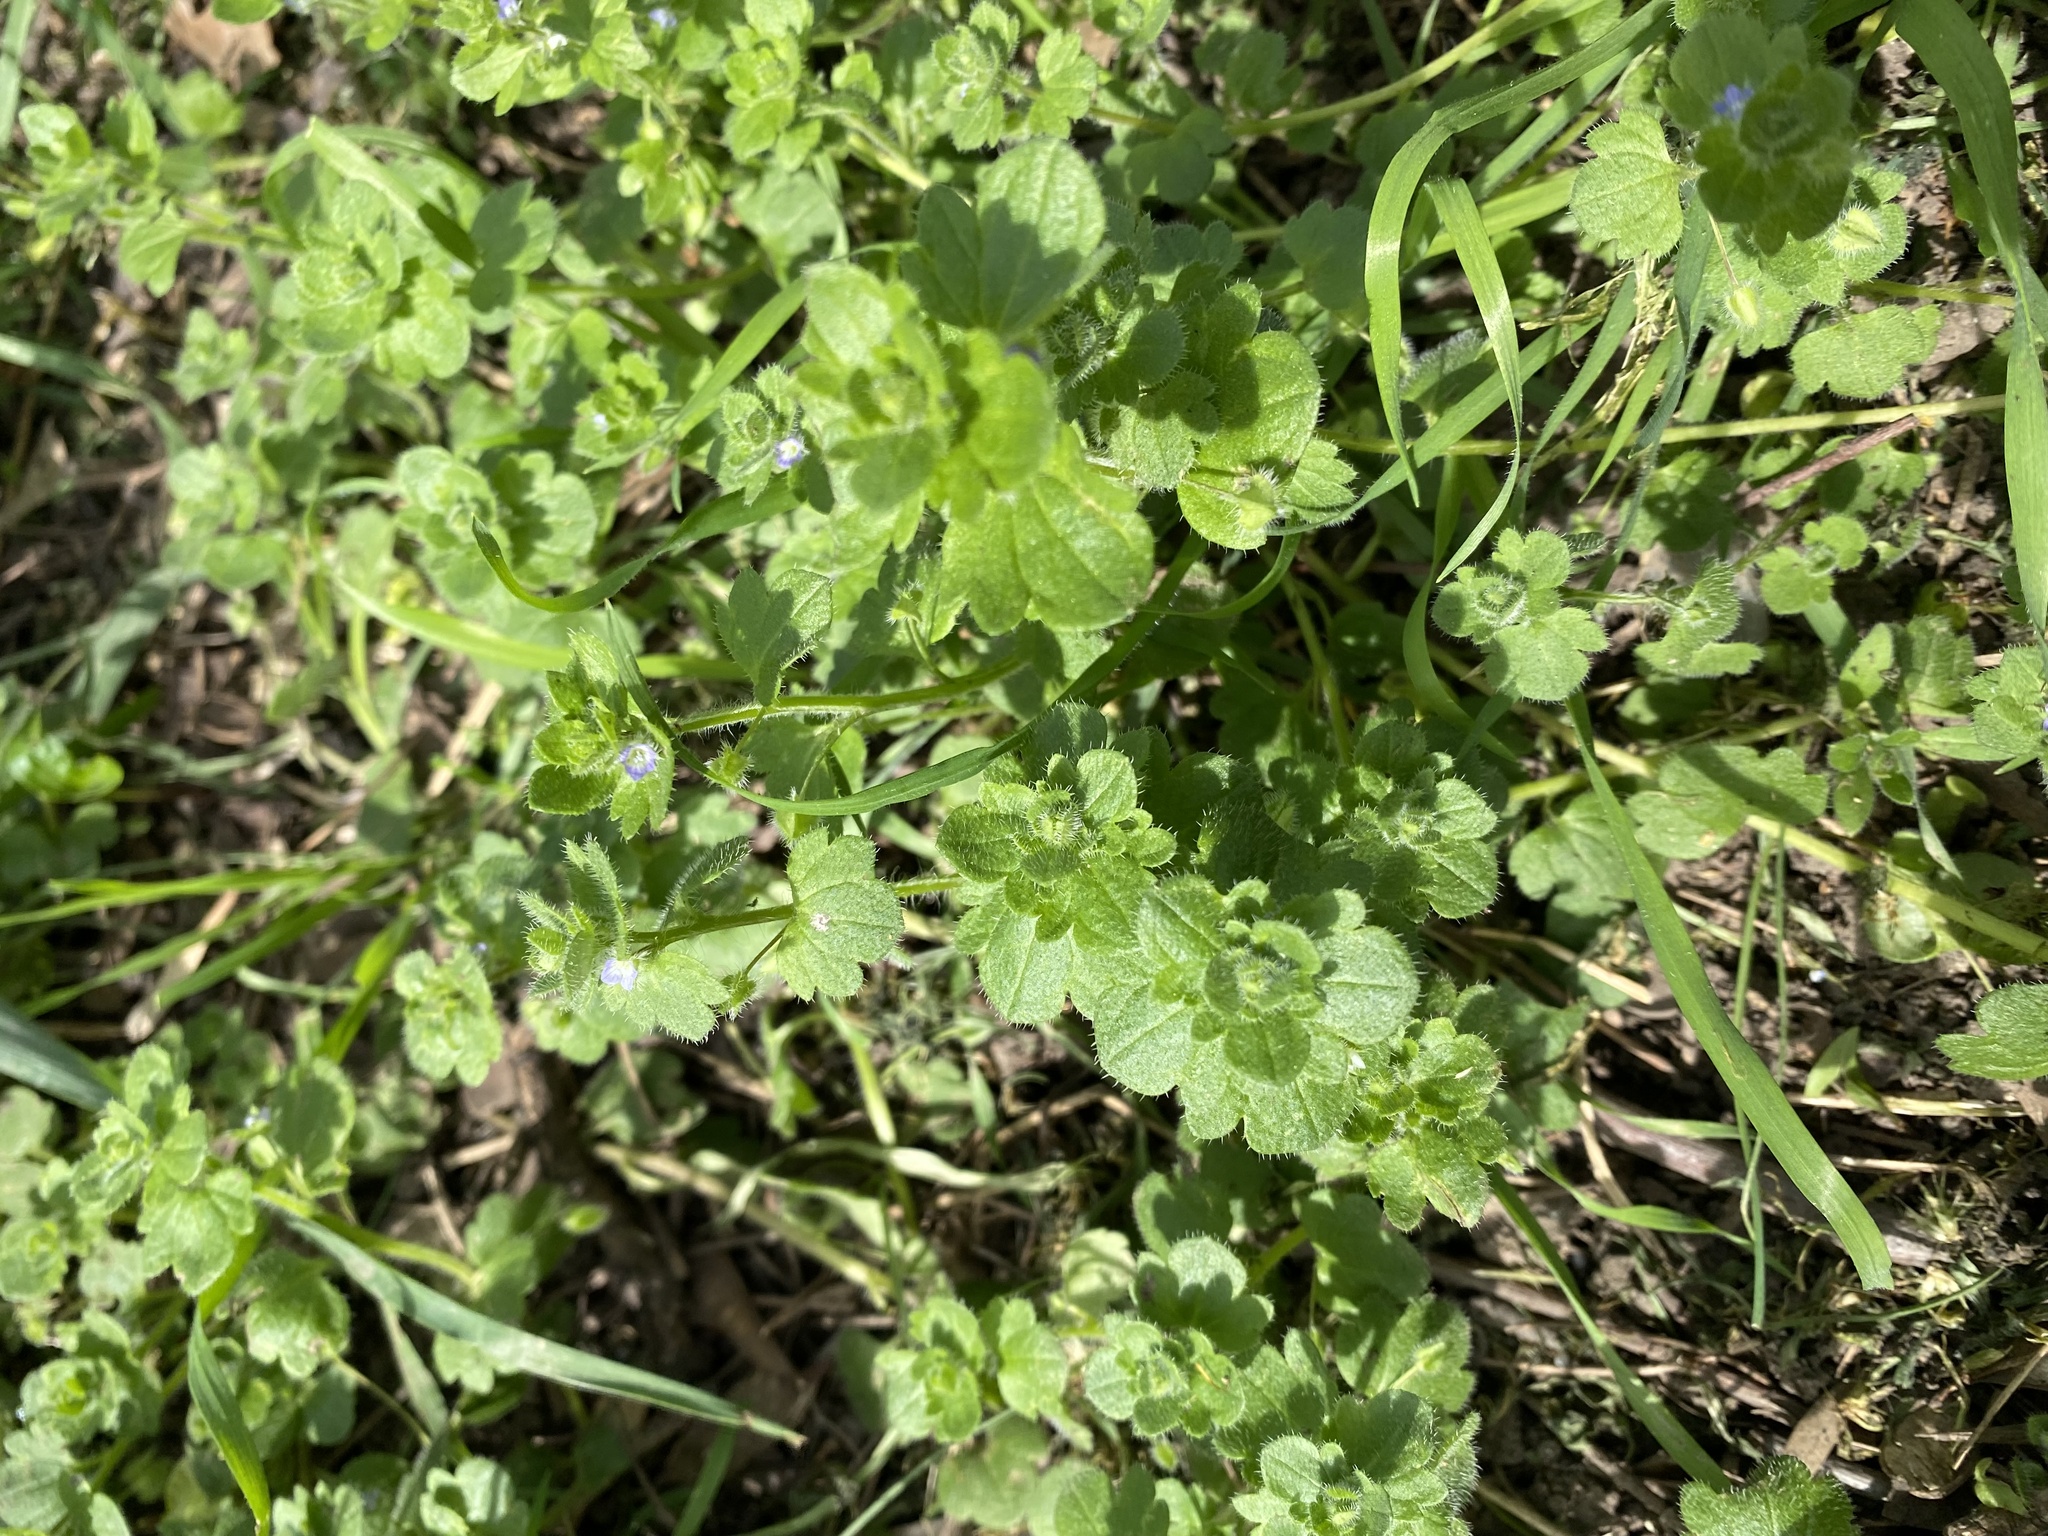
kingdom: Plantae
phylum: Tracheophyta
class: Magnoliopsida
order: Lamiales
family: Plantaginaceae
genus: Veronica
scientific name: Veronica hederifolia
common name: Ivy-leaved speedwell
